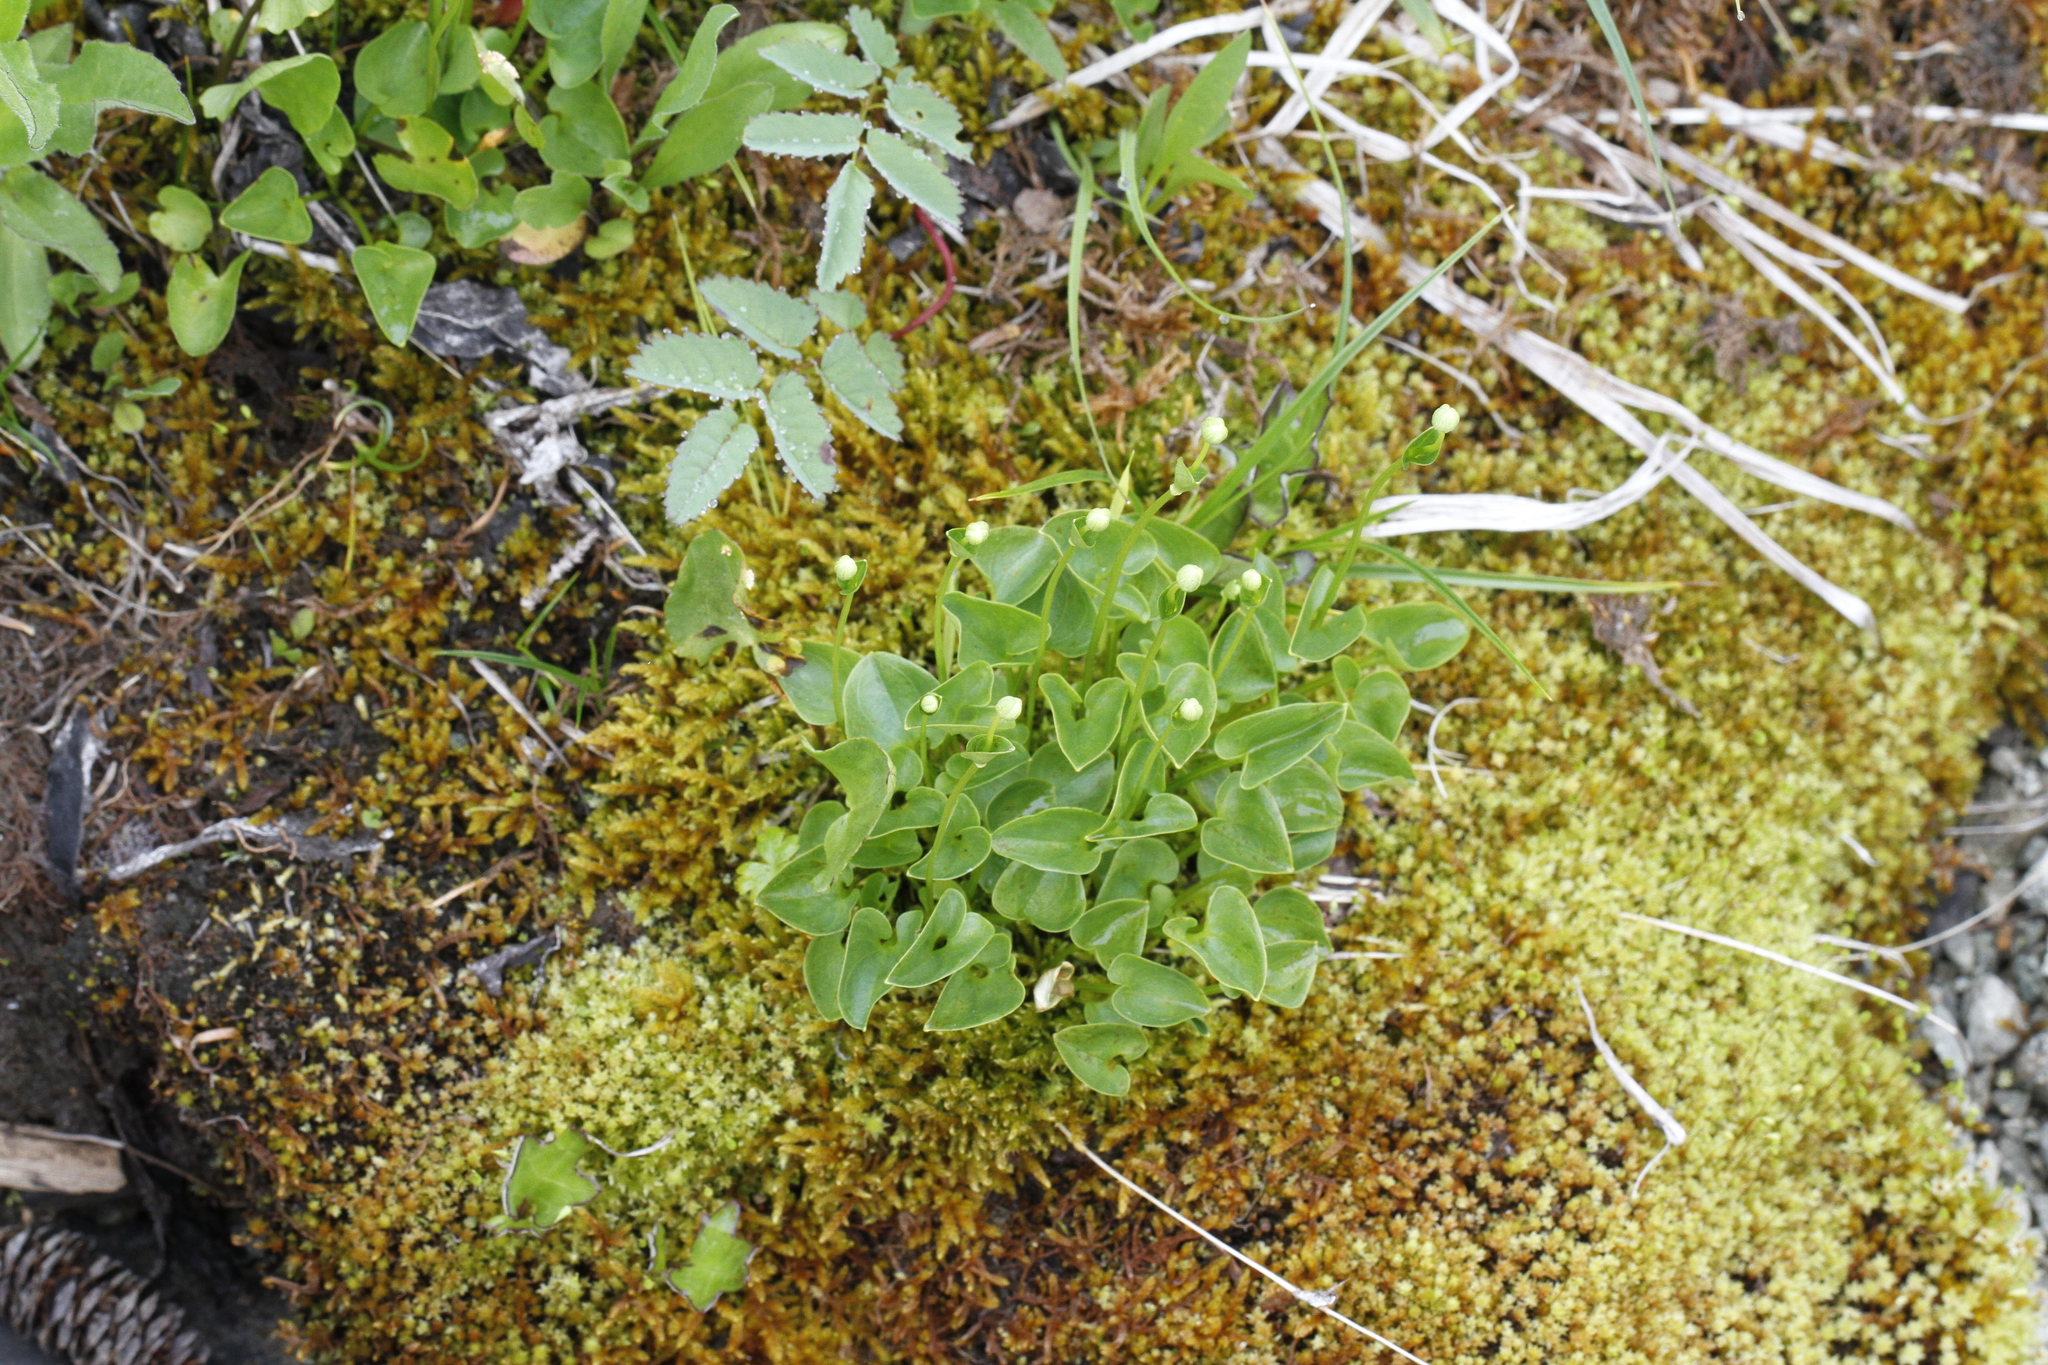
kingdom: Plantae
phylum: Tracheophyta
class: Magnoliopsida
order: Celastrales
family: Parnassiaceae
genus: Parnassia
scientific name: Parnassia fimbriata
